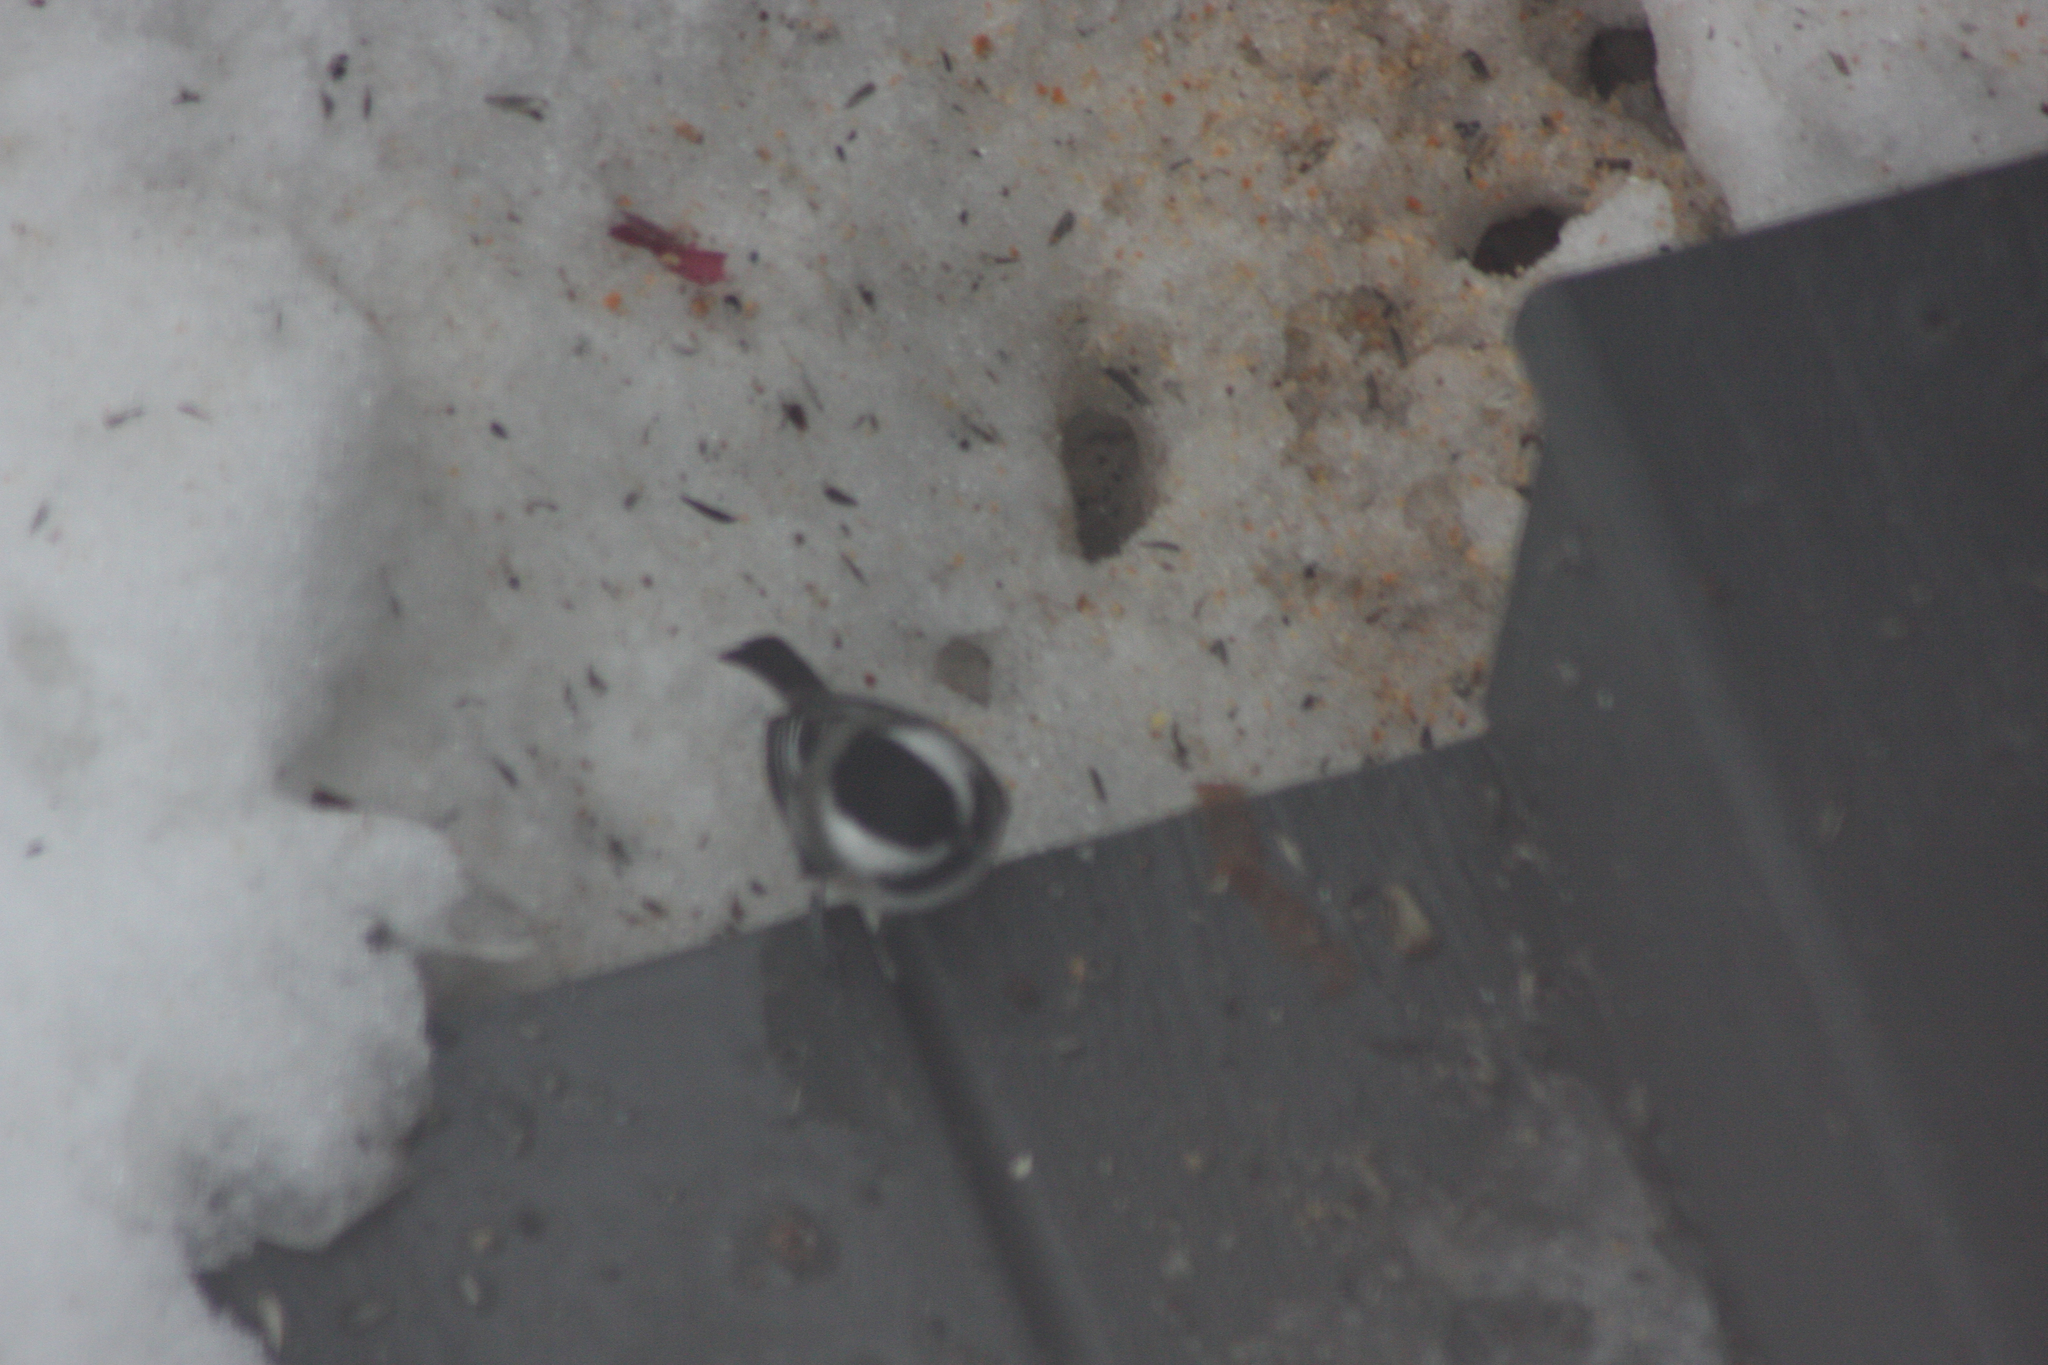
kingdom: Animalia
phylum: Chordata
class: Aves
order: Passeriformes
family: Paridae
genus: Poecile
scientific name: Poecile atricapillus
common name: Black-capped chickadee
